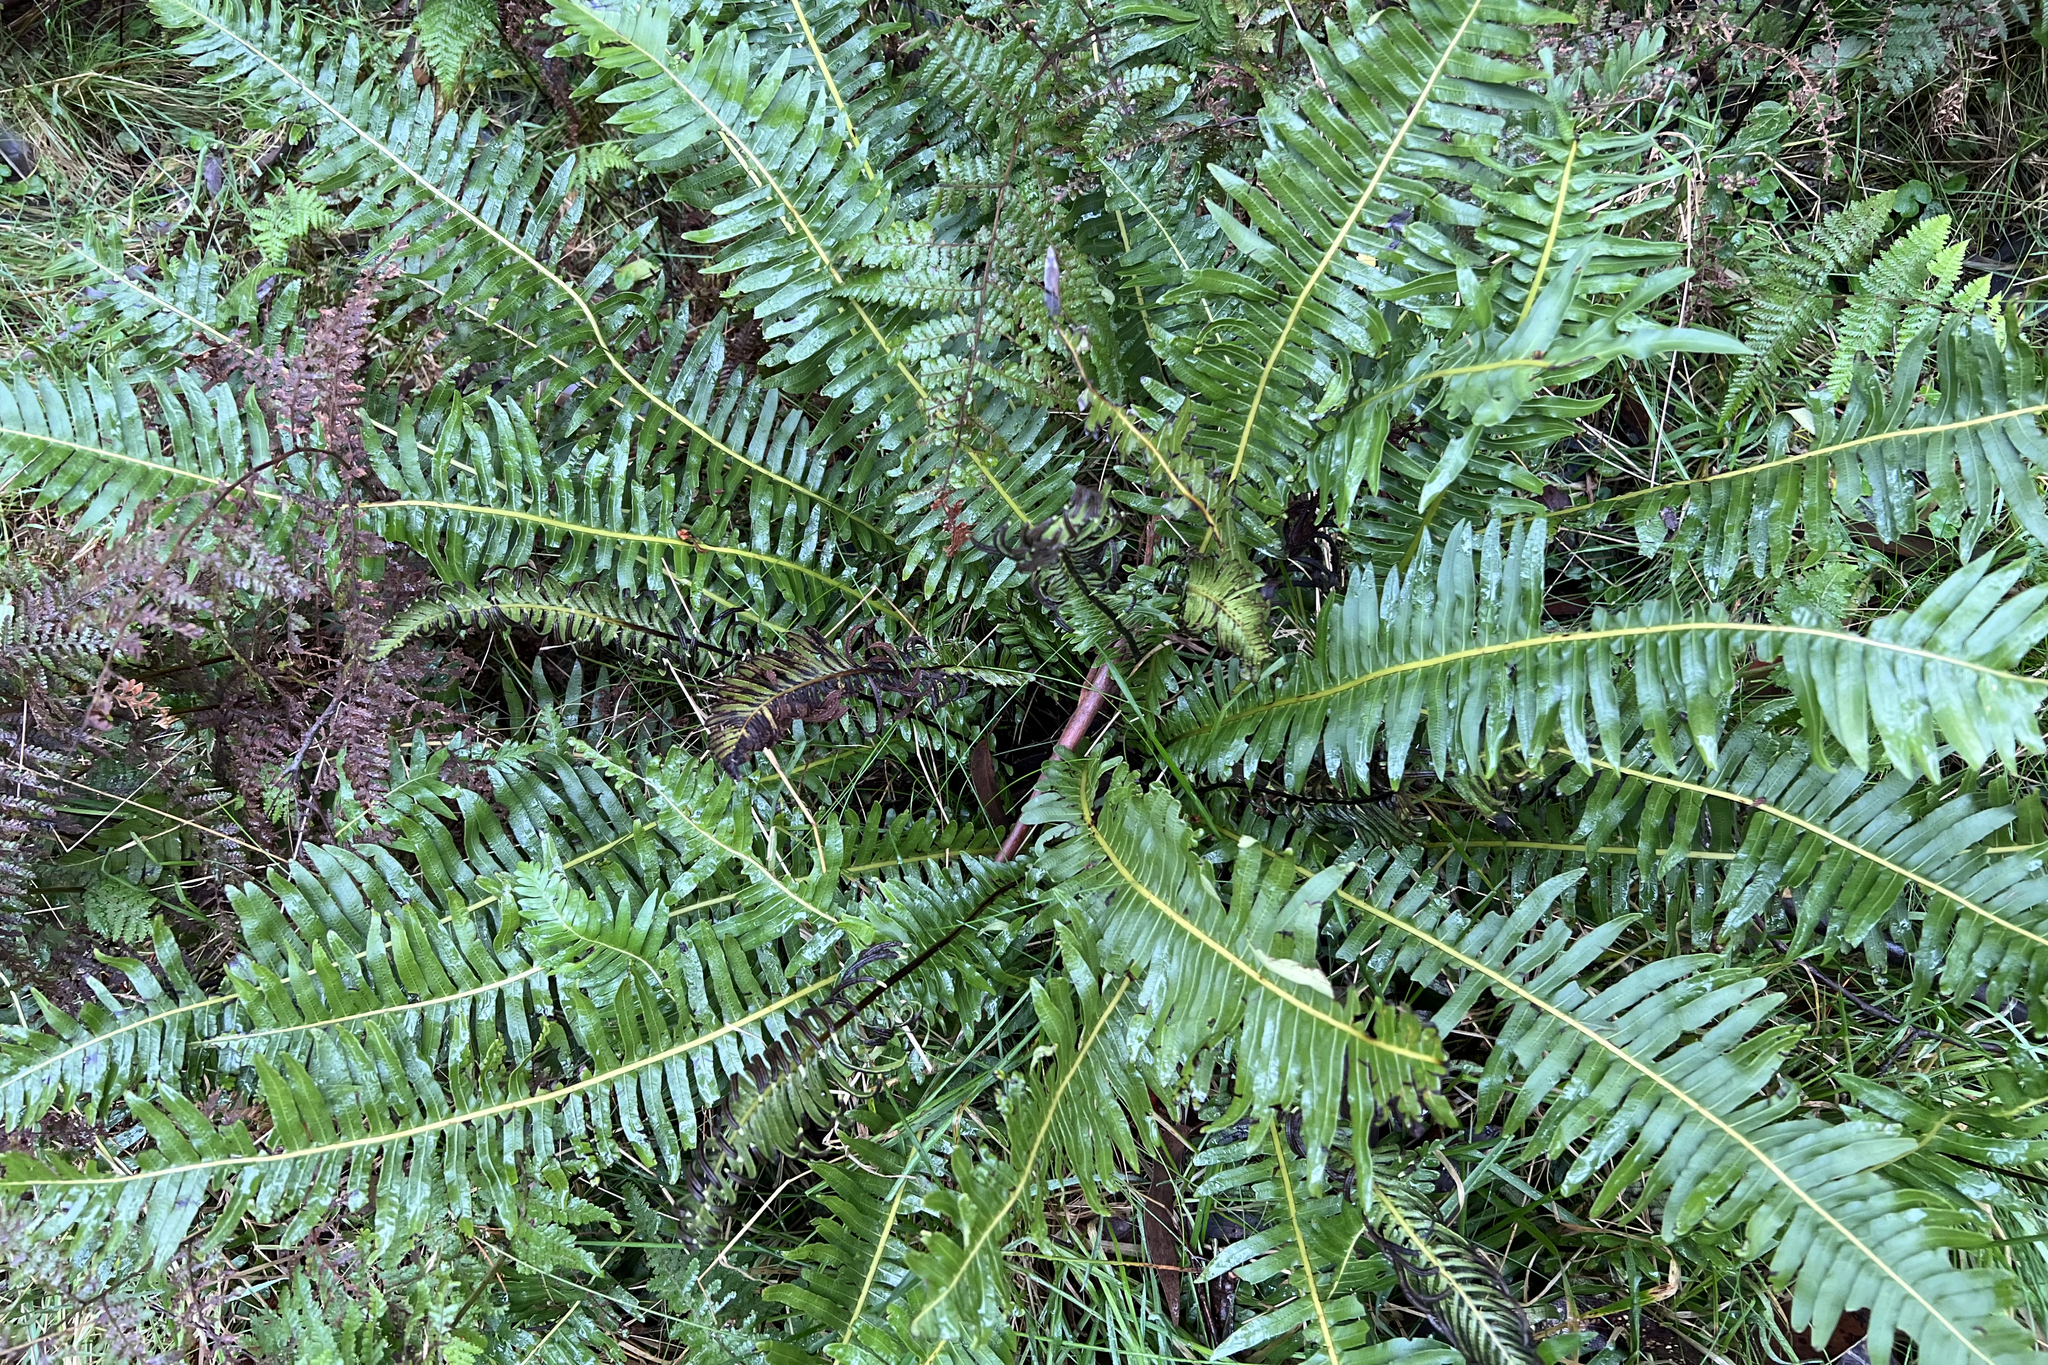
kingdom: Plantae
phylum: Tracheophyta
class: Polypodiopsida
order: Polypodiales
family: Blechnaceae
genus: Lomaria
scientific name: Lomaria nuda
